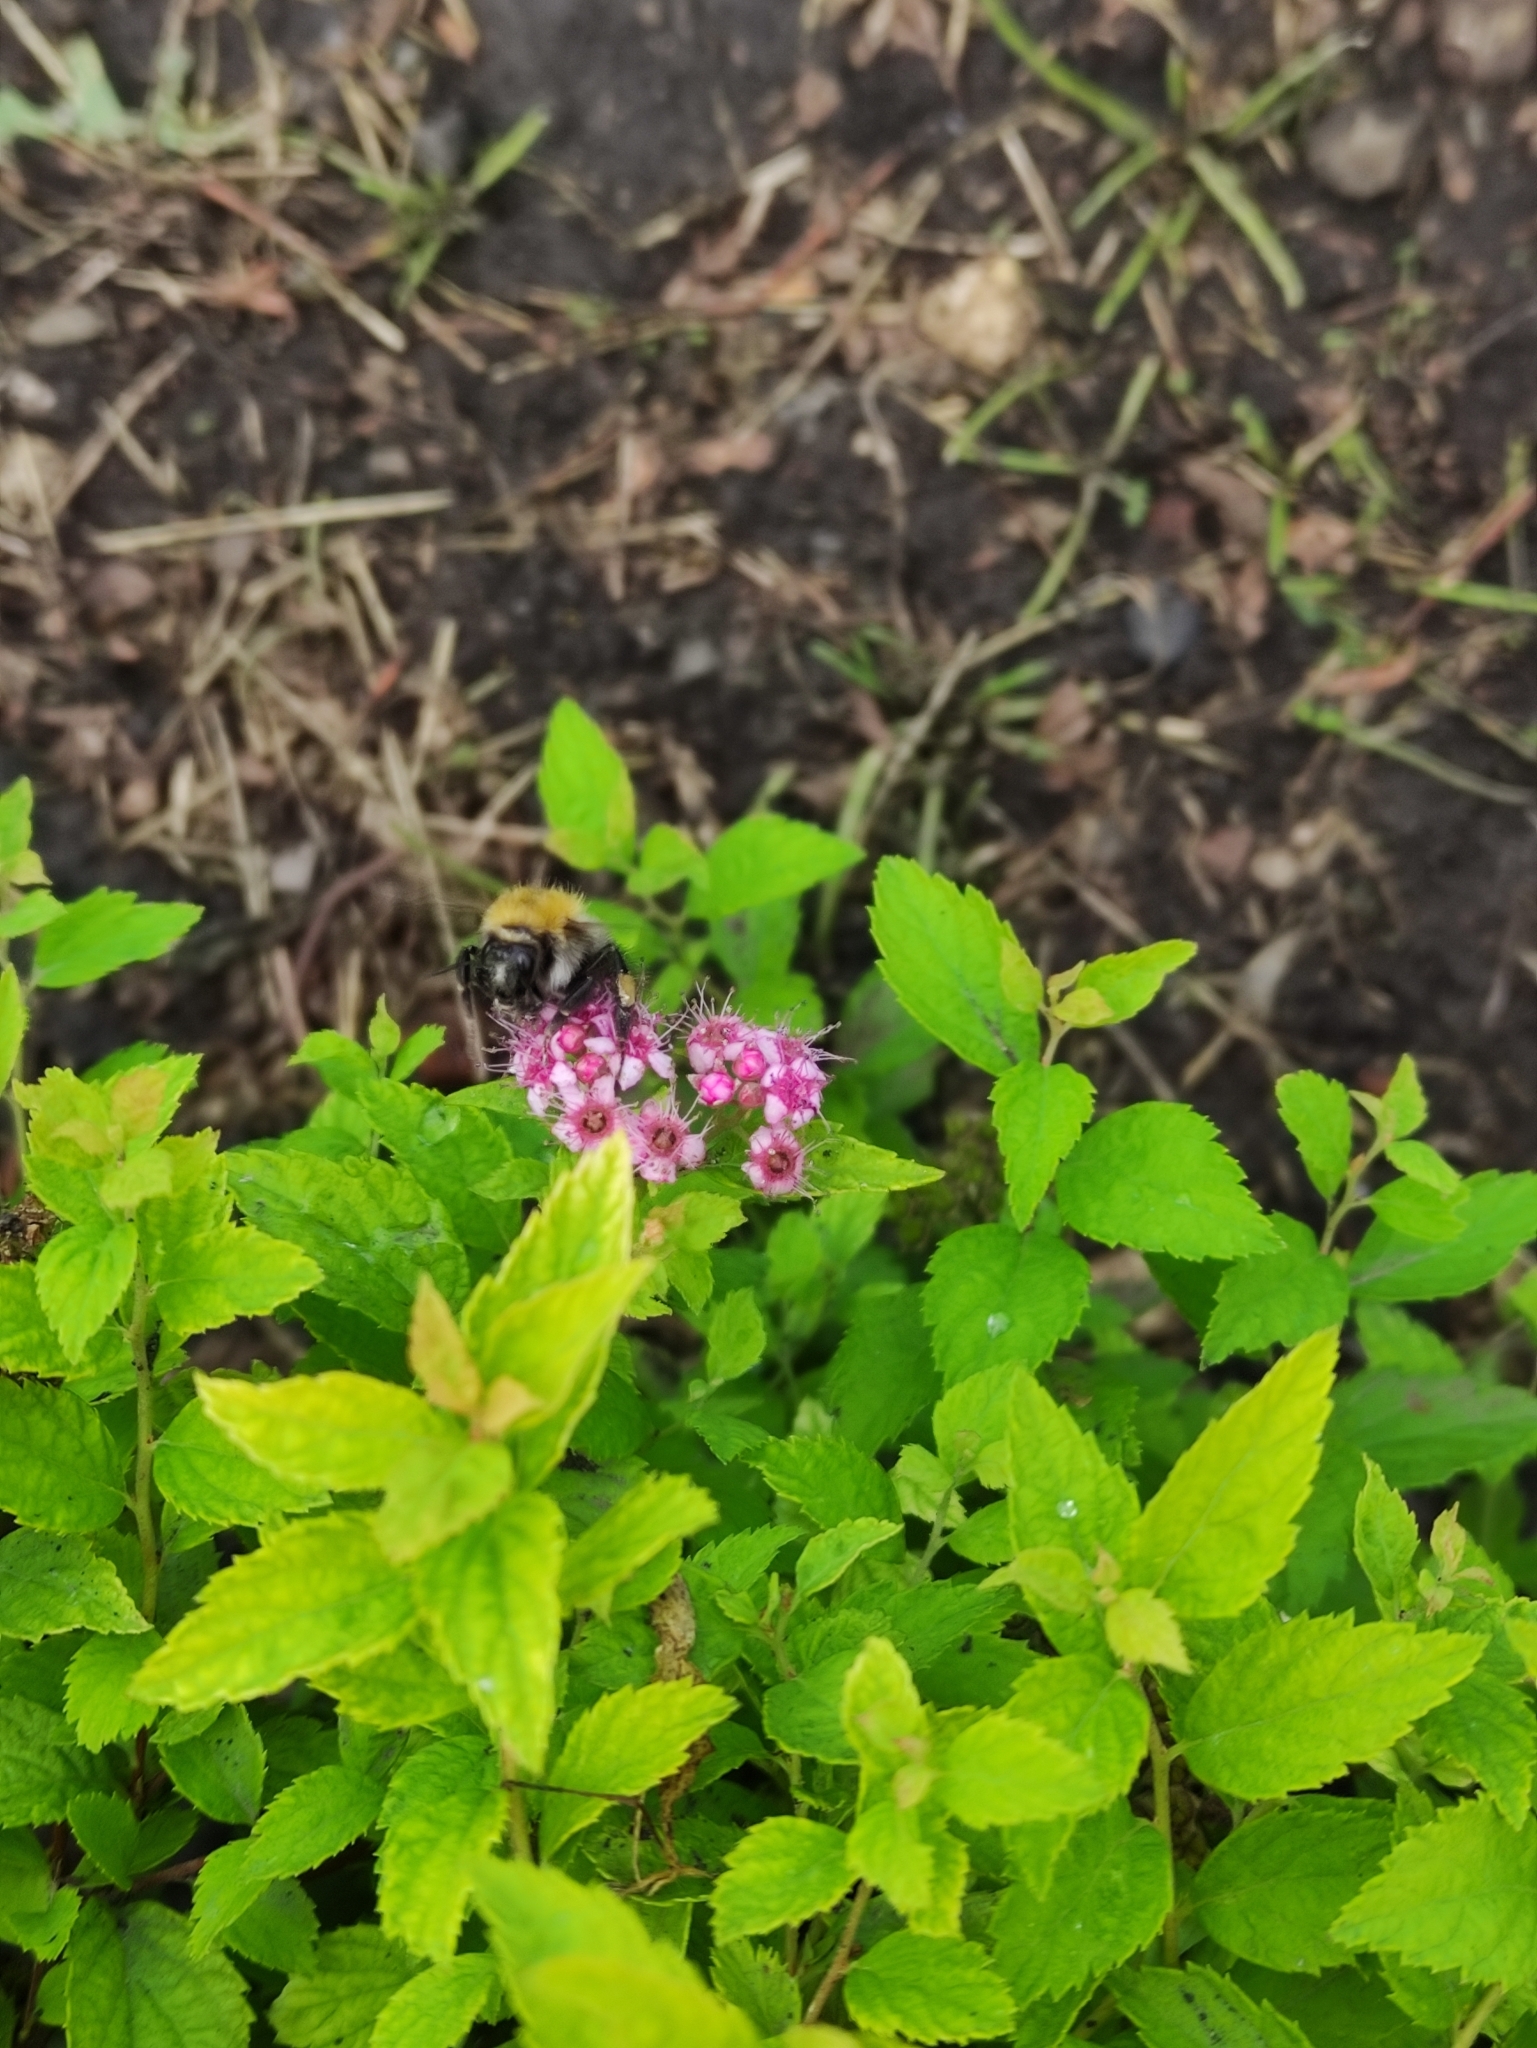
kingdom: Animalia
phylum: Arthropoda
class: Insecta
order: Hymenoptera
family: Apidae
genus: Bombus
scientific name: Bombus pascuorum
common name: Common carder bee
